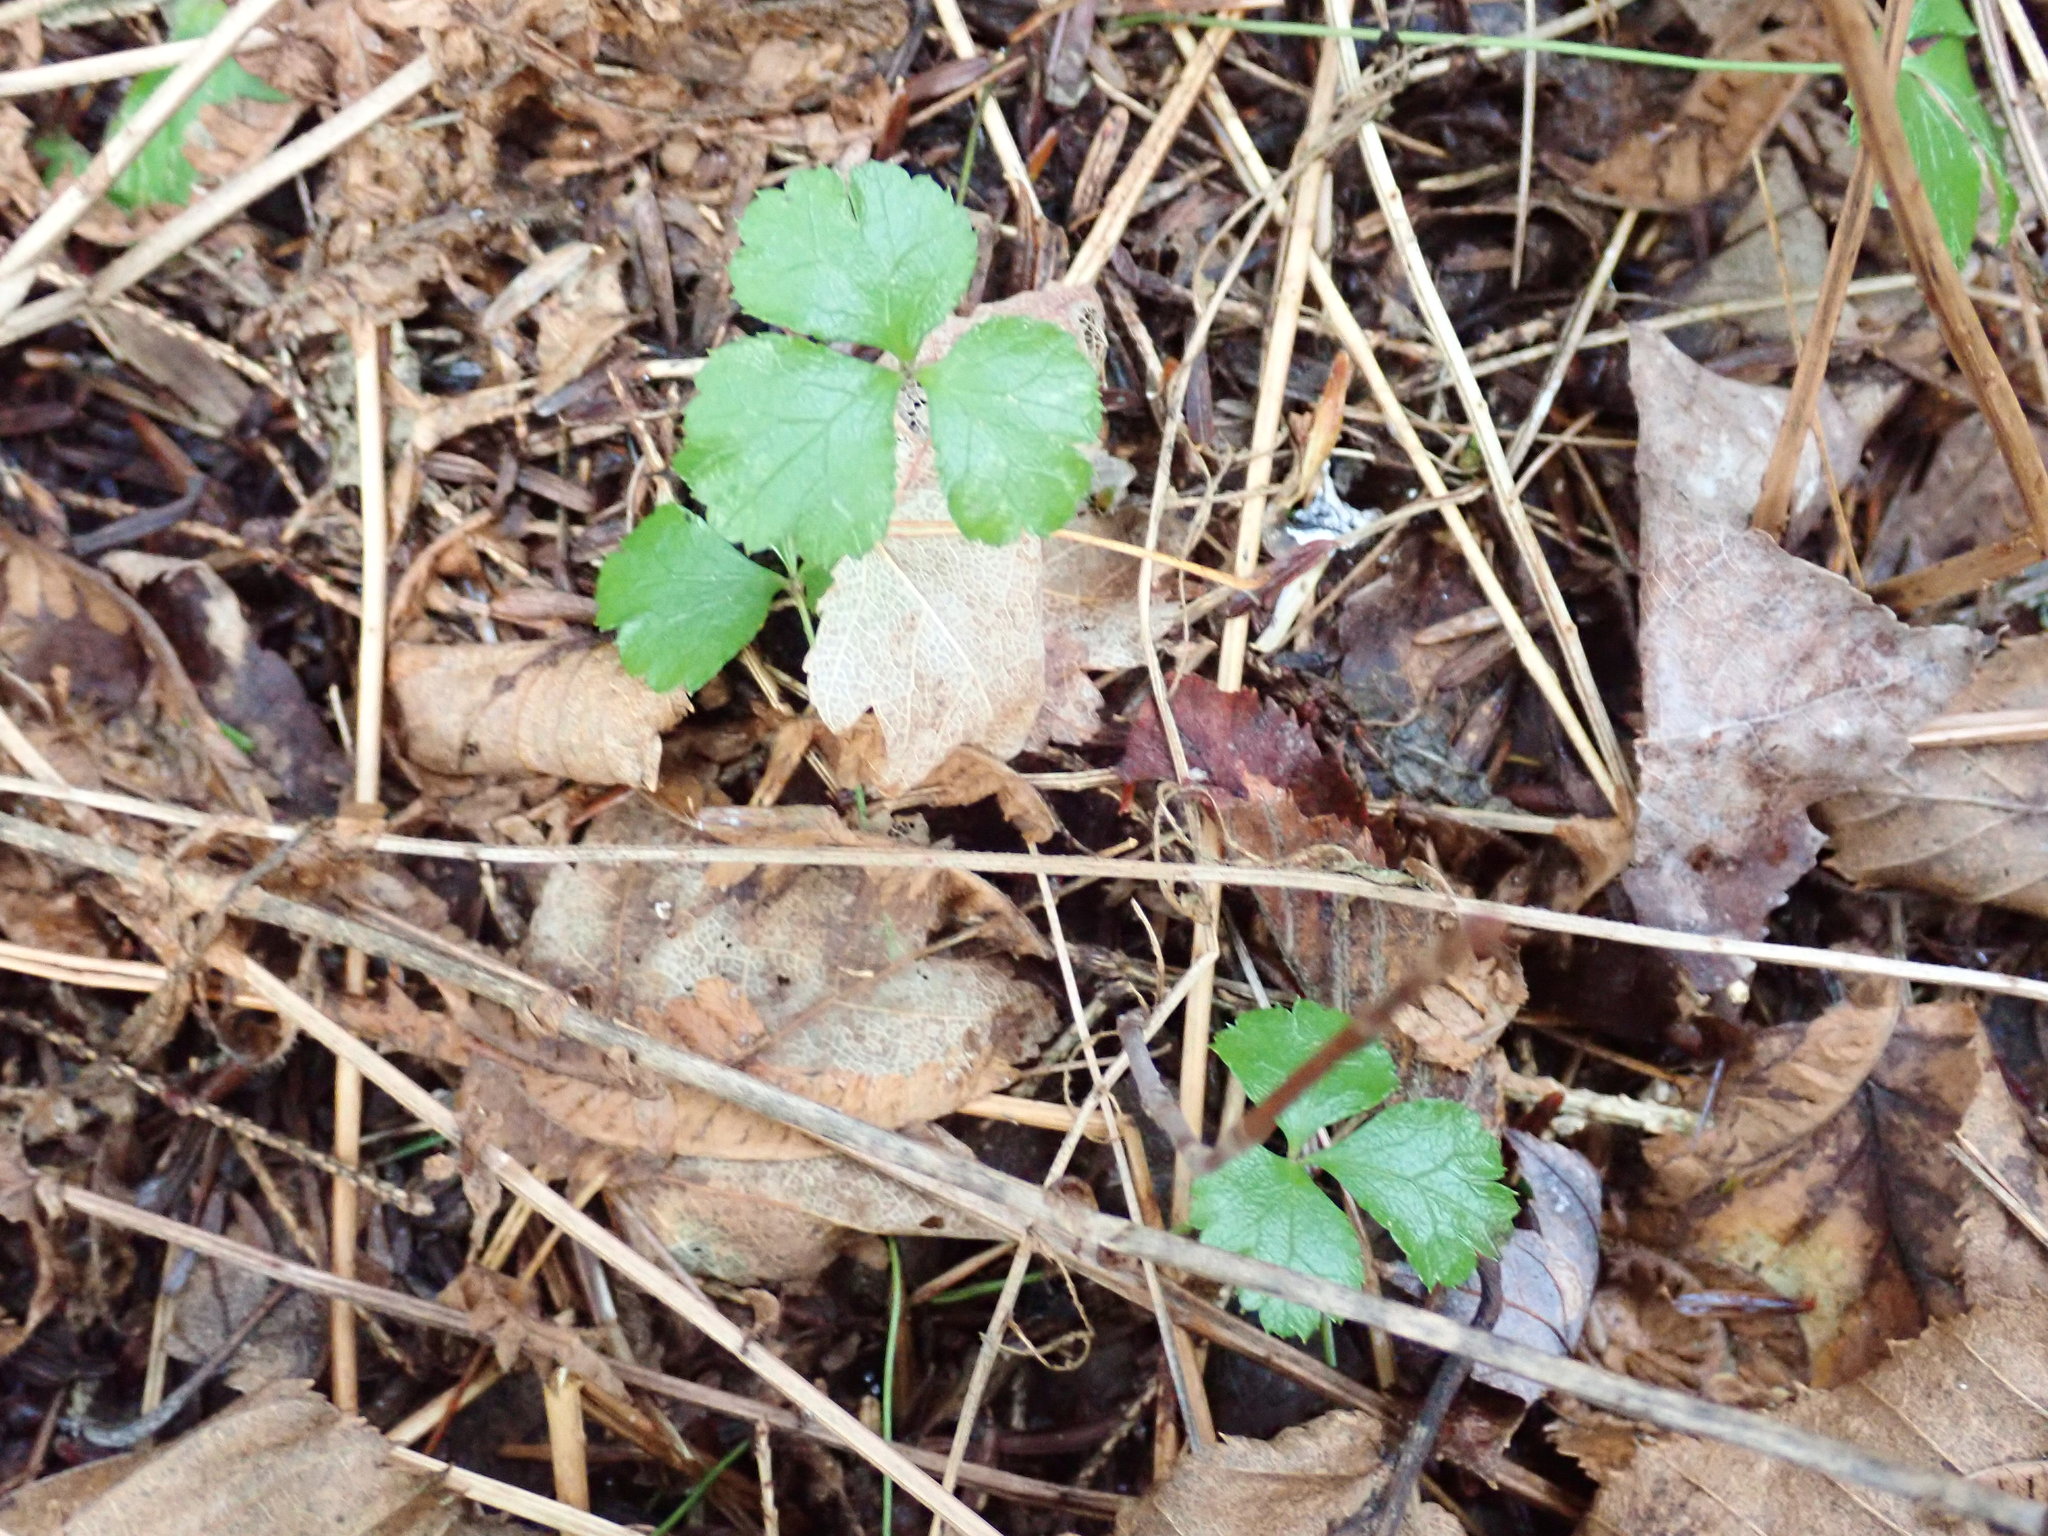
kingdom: Plantae
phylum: Tracheophyta
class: Magnoliopsida
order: Ranunculales
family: Ranunculaceae
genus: Coptis
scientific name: Coptis trifolia
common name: Canker-root
